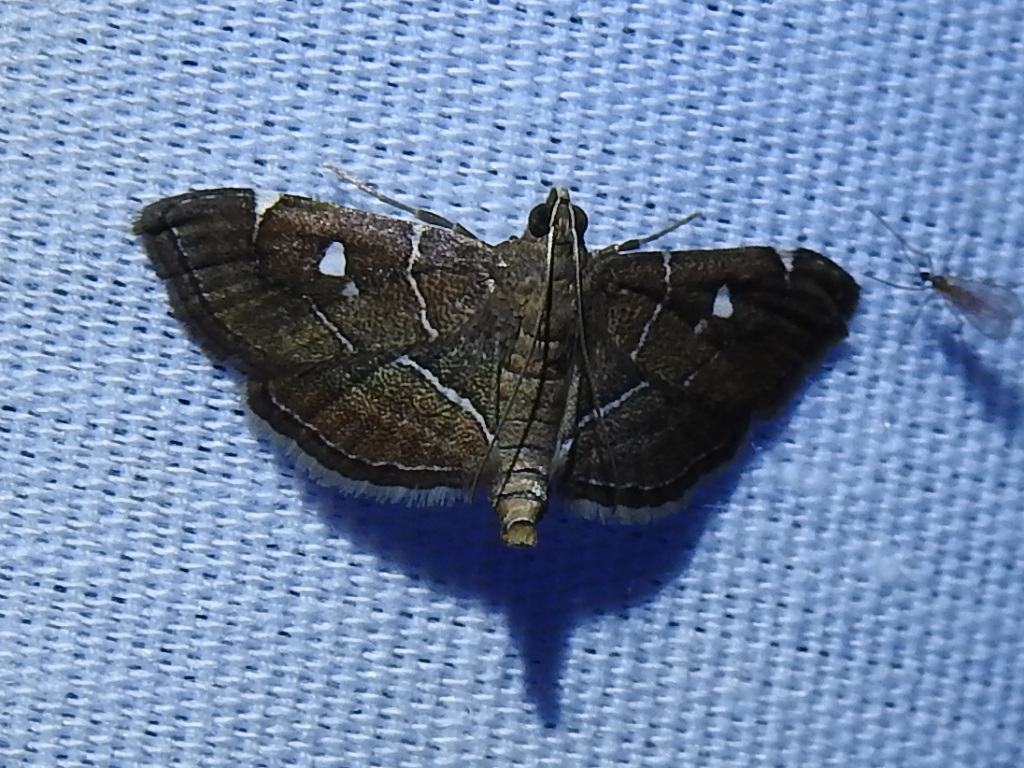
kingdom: Animalia
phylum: Arthropoda
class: Insecta
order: Lepidoptera
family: Crambidae
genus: Lamprosema
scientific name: Lamprosema victoriae
